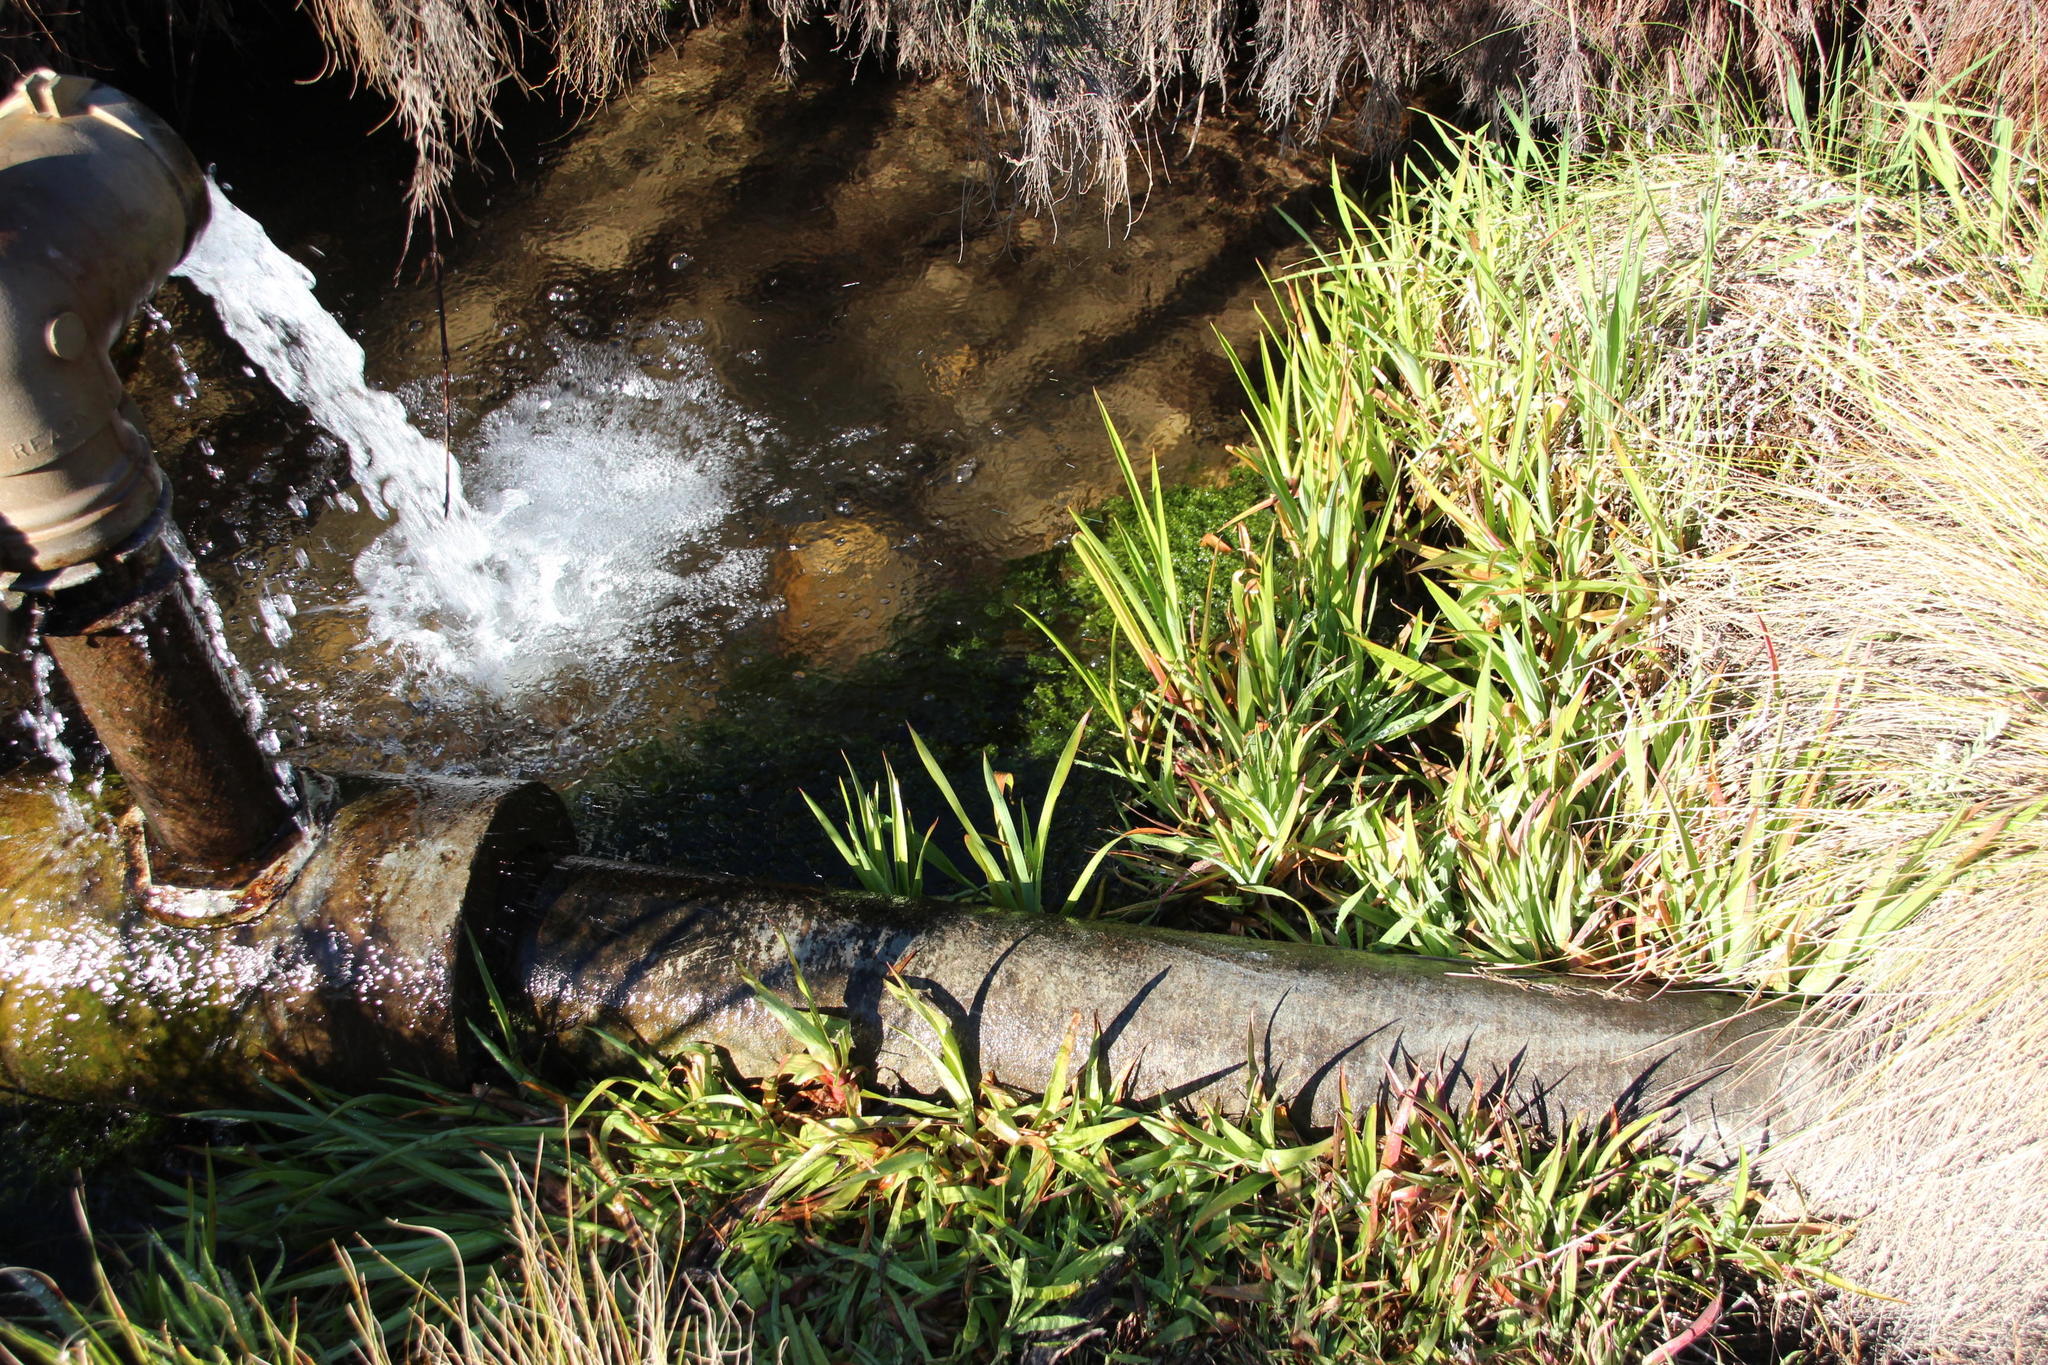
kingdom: Plantae
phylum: Tracheophyta
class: Liliopsida
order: Poales
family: Juncaceae
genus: Juncus
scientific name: Juncus lomatophyllus
